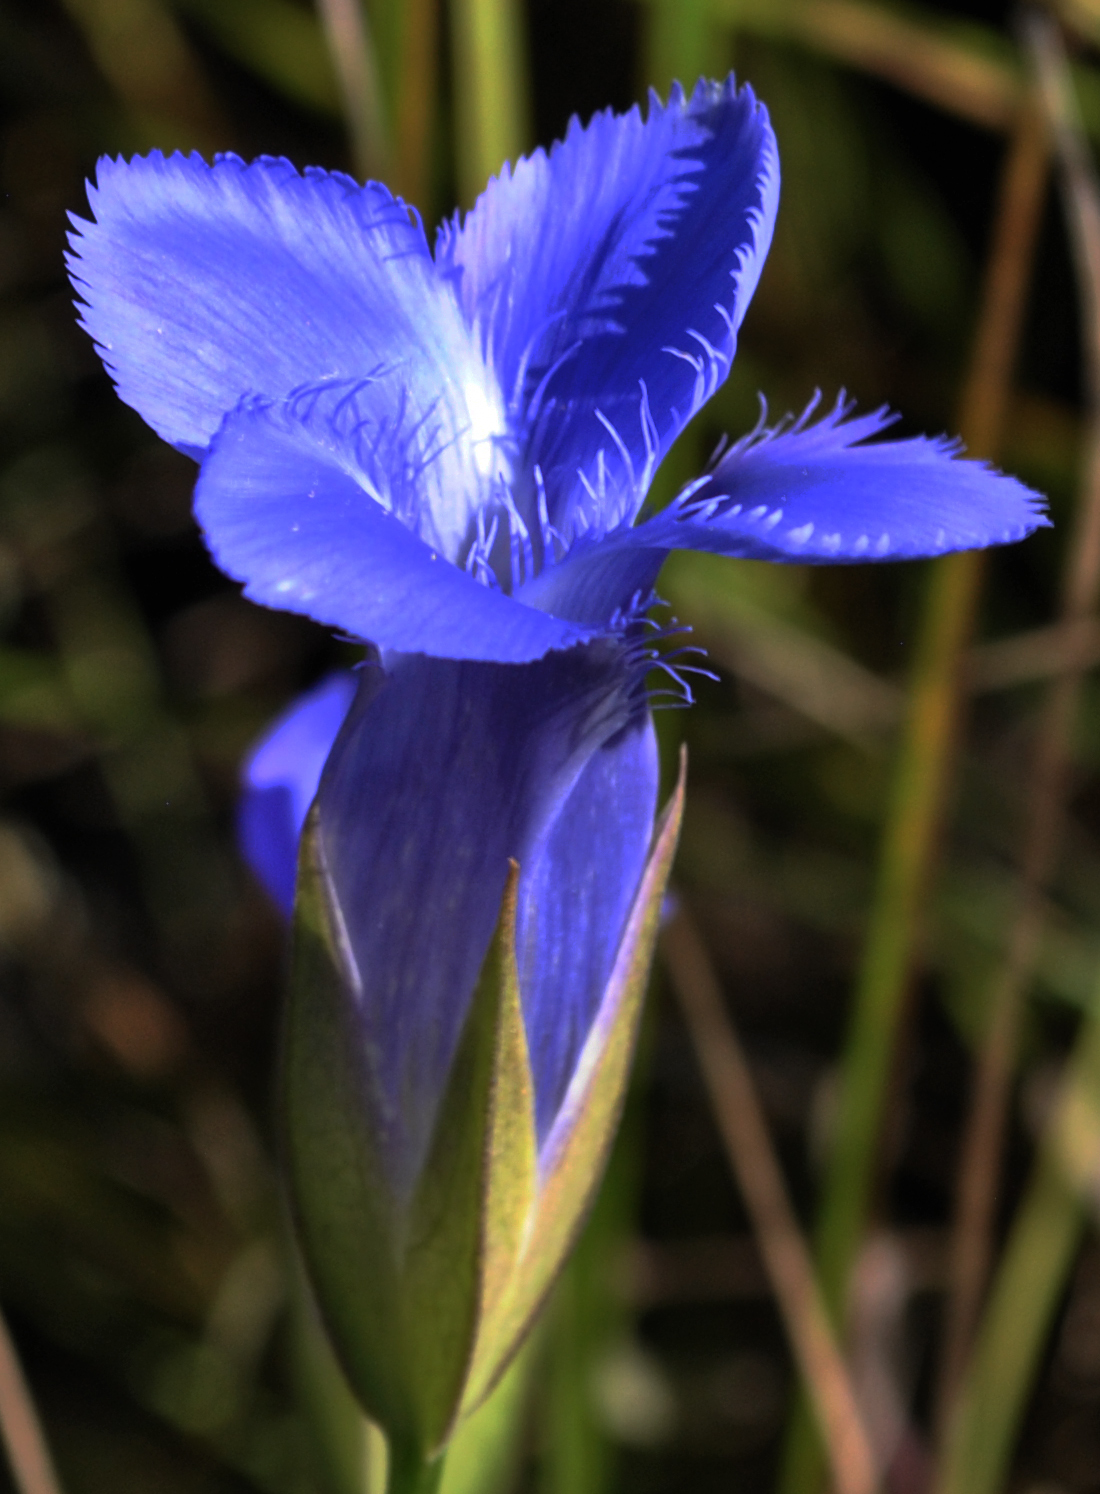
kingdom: Plantae
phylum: Tracheophyta
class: Magnoliopsida
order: Gentianales
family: Gentianaceae
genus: Gentianopsis
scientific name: Gentianopsis virgata
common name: Lesser fringed-gentian
